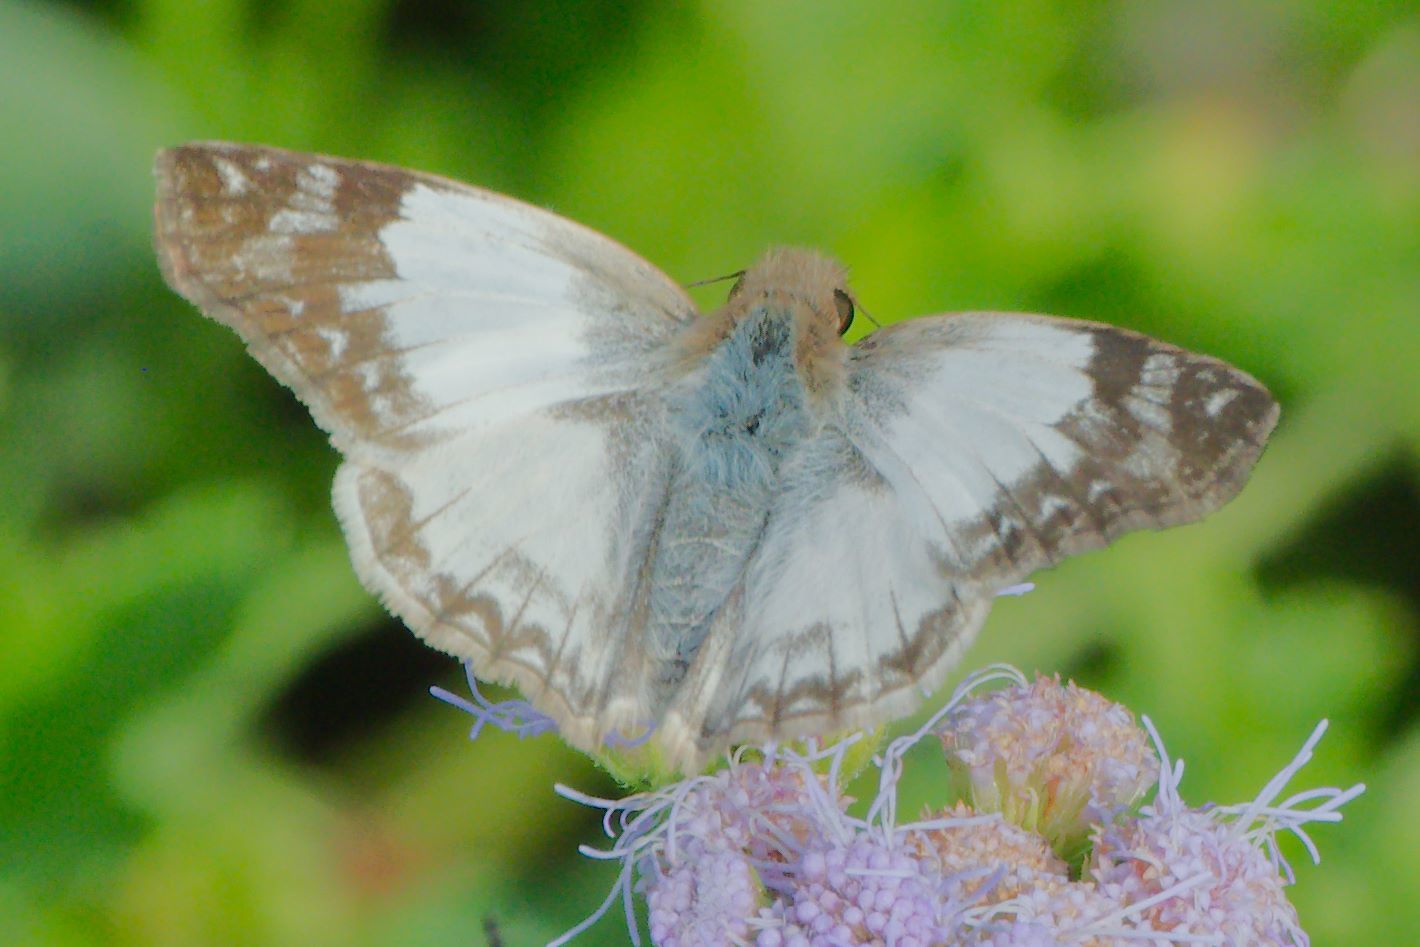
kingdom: Animalia
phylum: Arthropoda
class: Insecta
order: Lepidoptera
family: Hesperiidae
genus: Heliopetes
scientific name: Heliopetes laviana
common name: Laviana white-skipper
